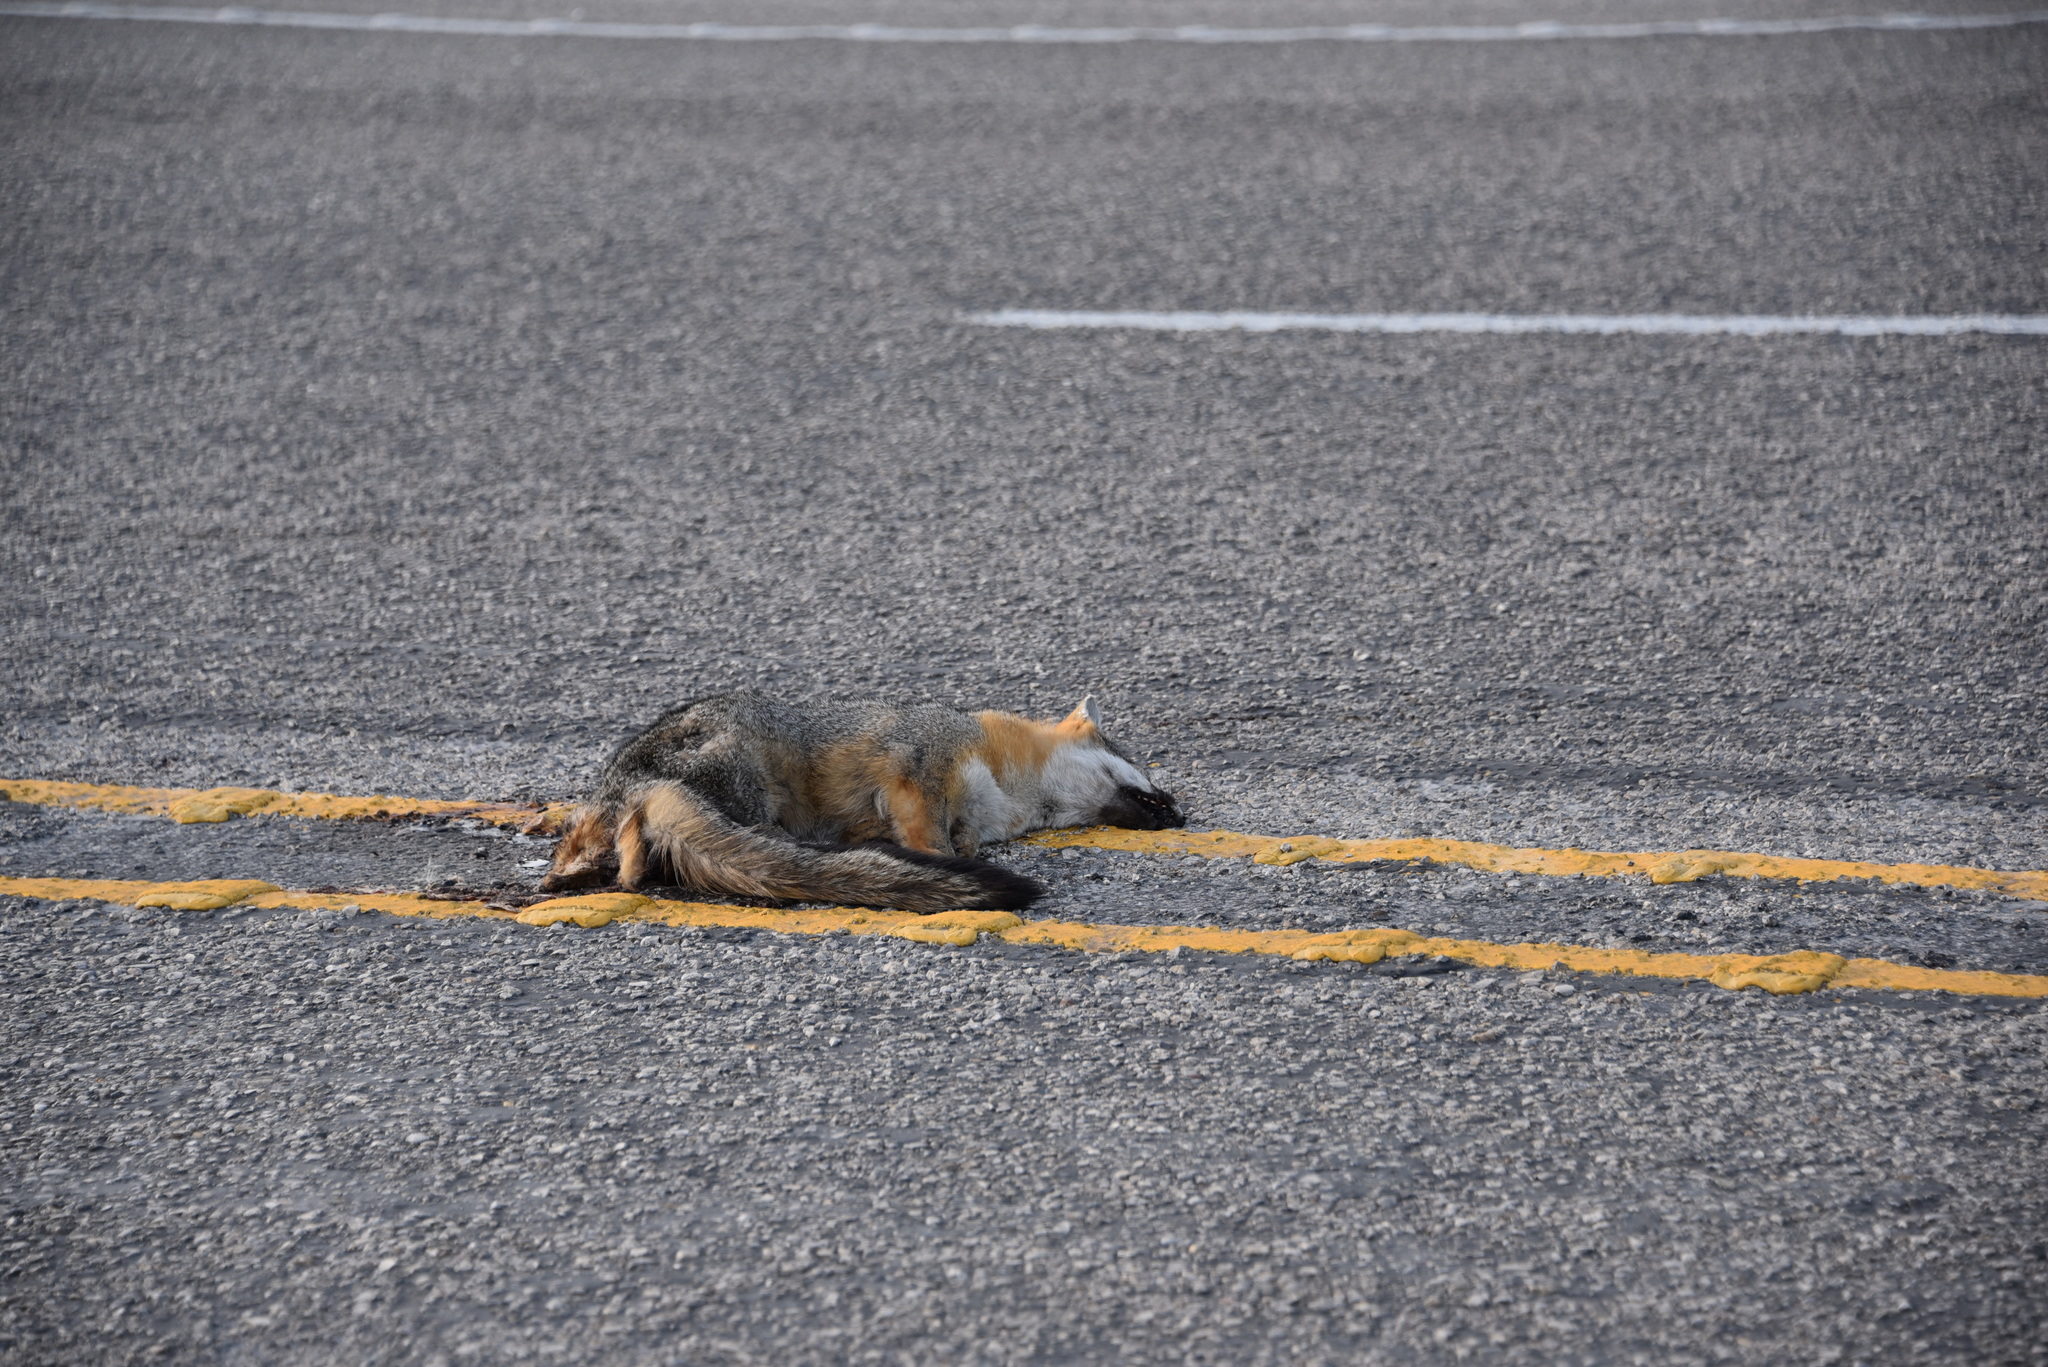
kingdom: Animalia
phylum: Chordata
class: Mammalia
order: Carnivora
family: Canidae
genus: Urocyon
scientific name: Urocyon cinereoargenteus
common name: Gray fox
